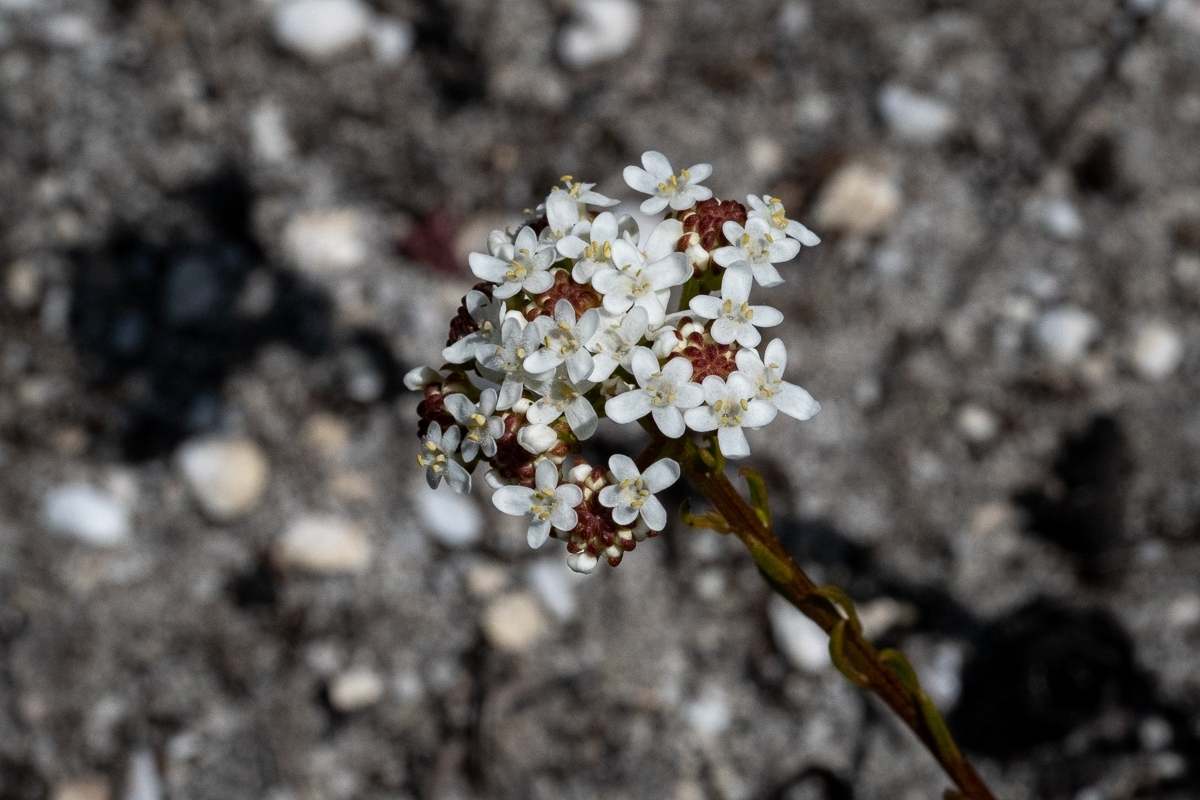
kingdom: Plantae
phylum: Tracheophyta
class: Magnoliopsida
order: Lamiales
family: Scrophulariaceae
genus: Pseudoselago
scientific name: Pseudoselago spuria
